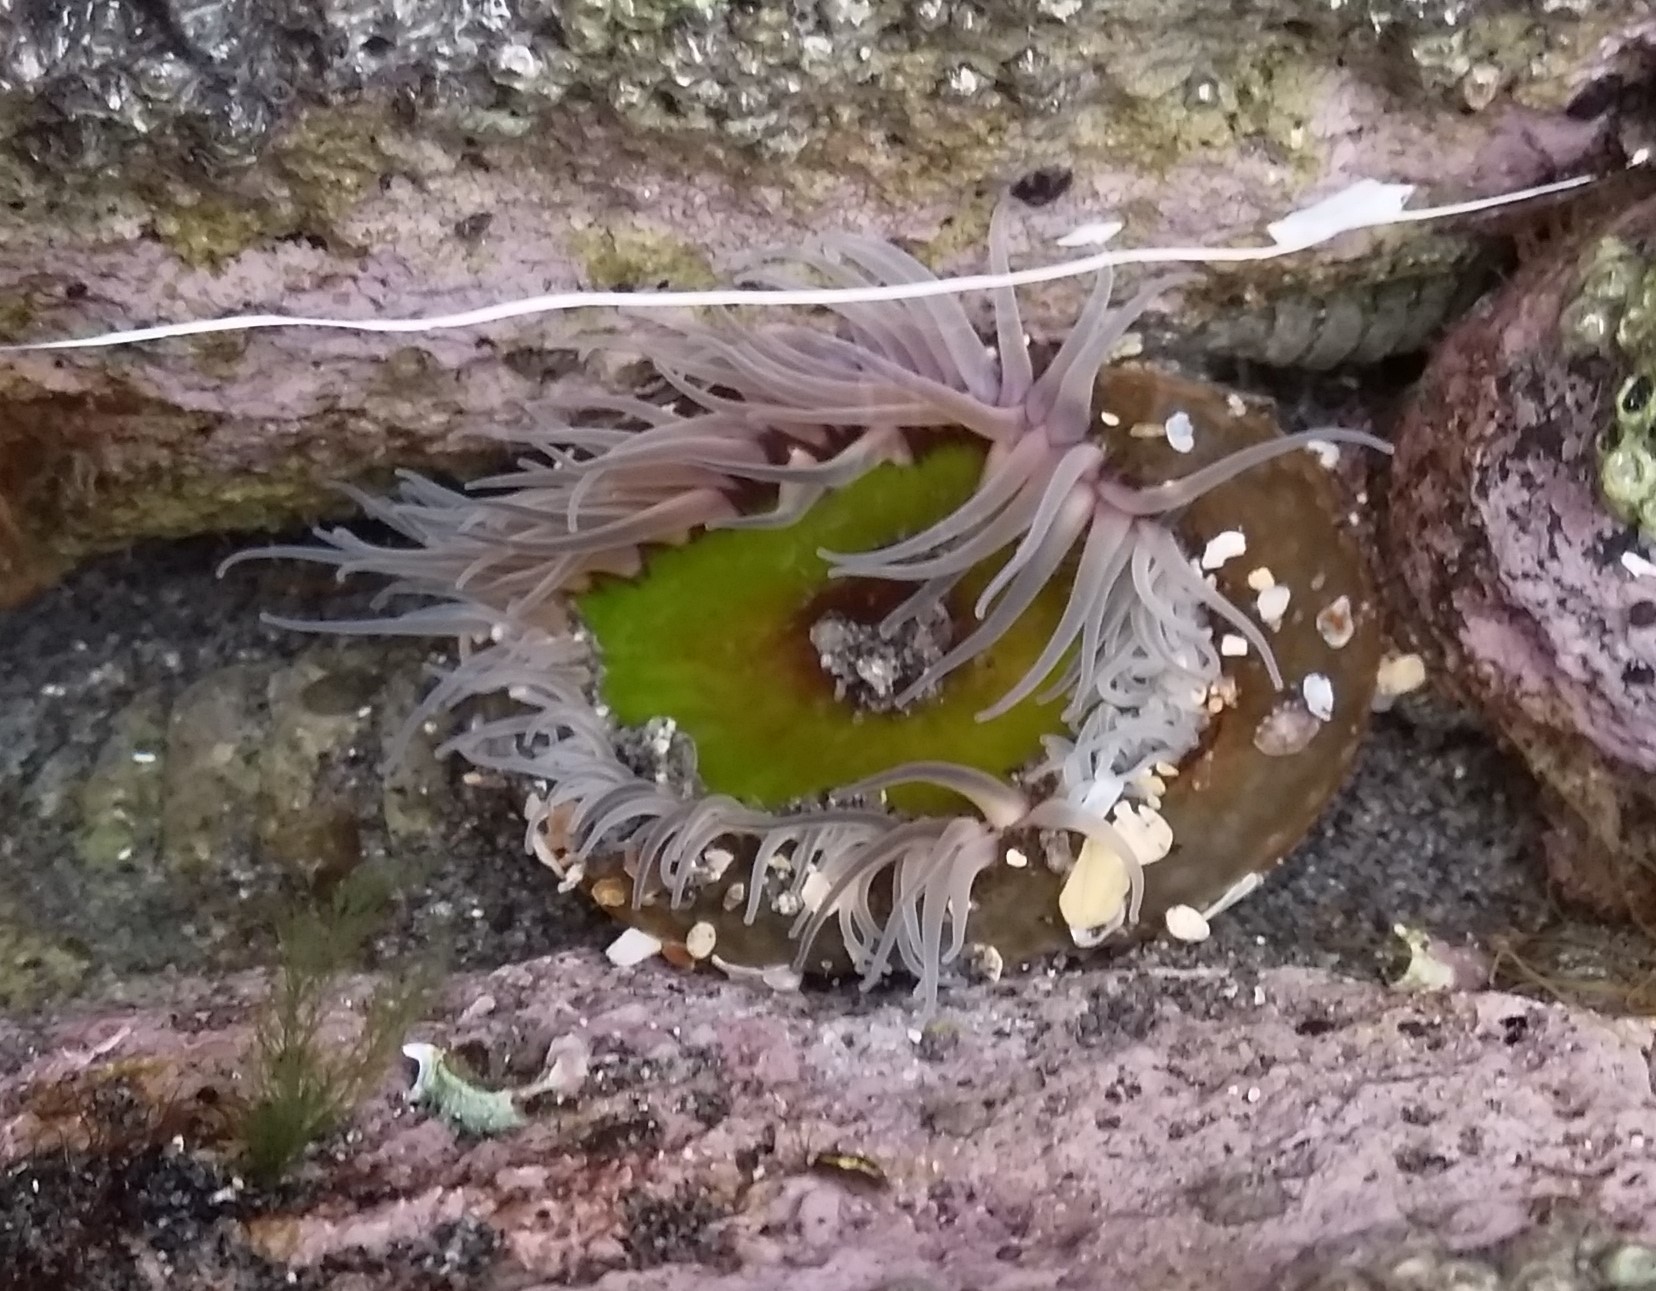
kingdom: Animalia
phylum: Cnidaria
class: Anthozoa
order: Actiniaria
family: Actiniidae
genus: Oulactis
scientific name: Oulactis magna
